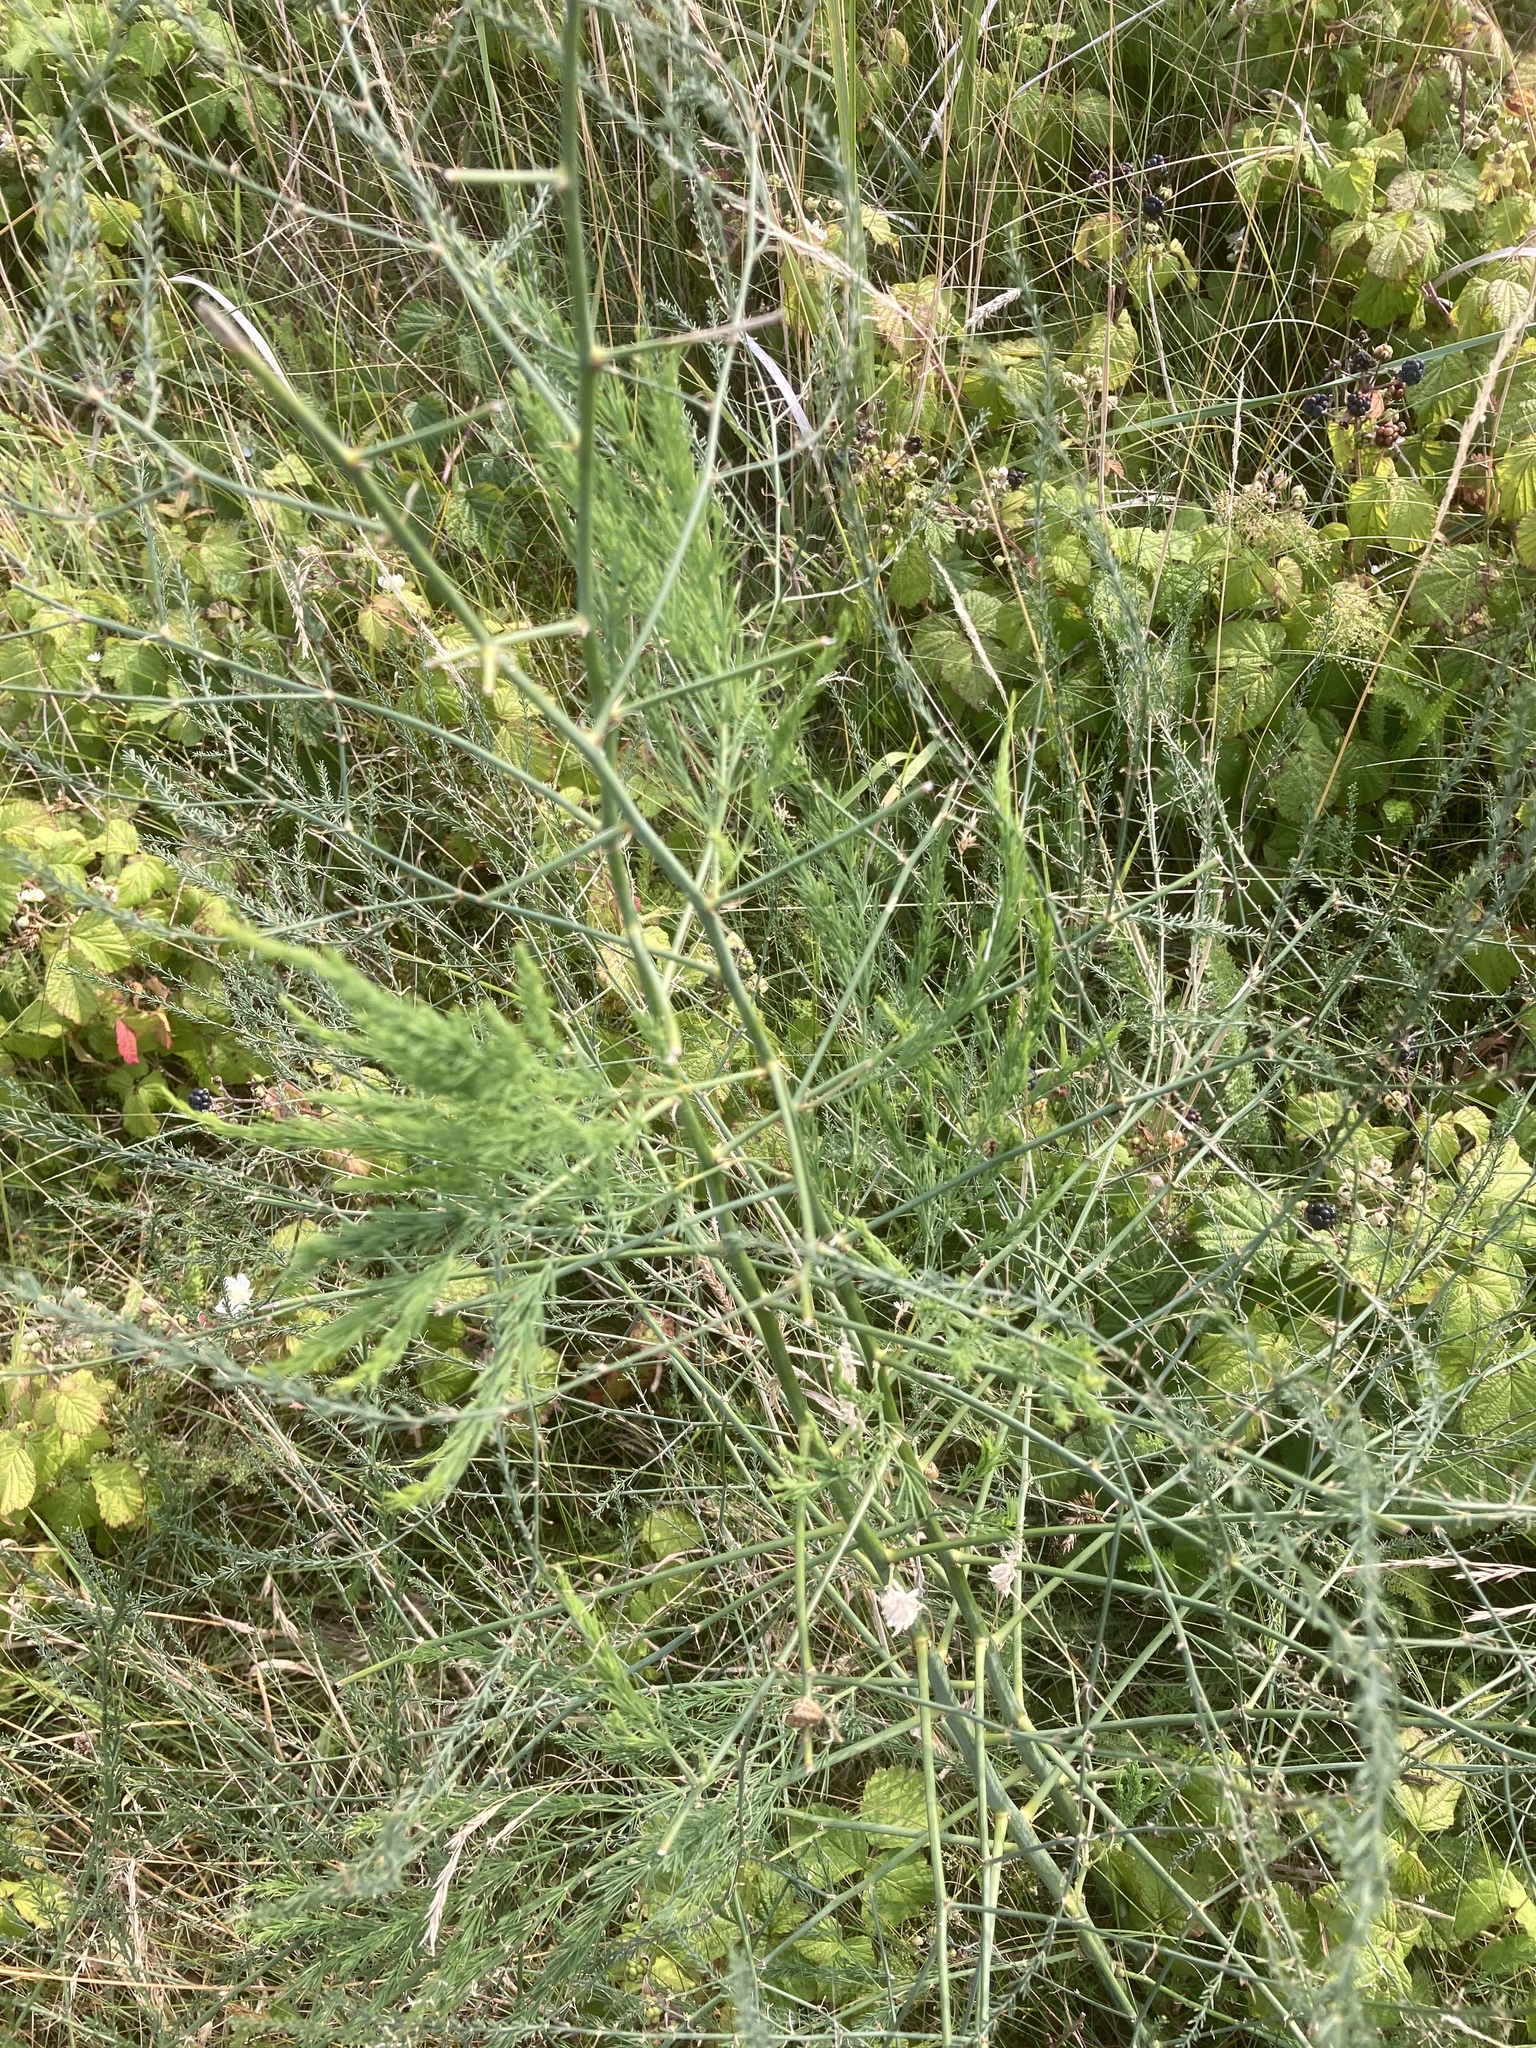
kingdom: Plantae
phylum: Tracheophyta
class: Liliopsida
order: Asparagales
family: Asparagaceae
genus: Asparagus
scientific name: Asparagus officinalis
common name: Garden asparagus
